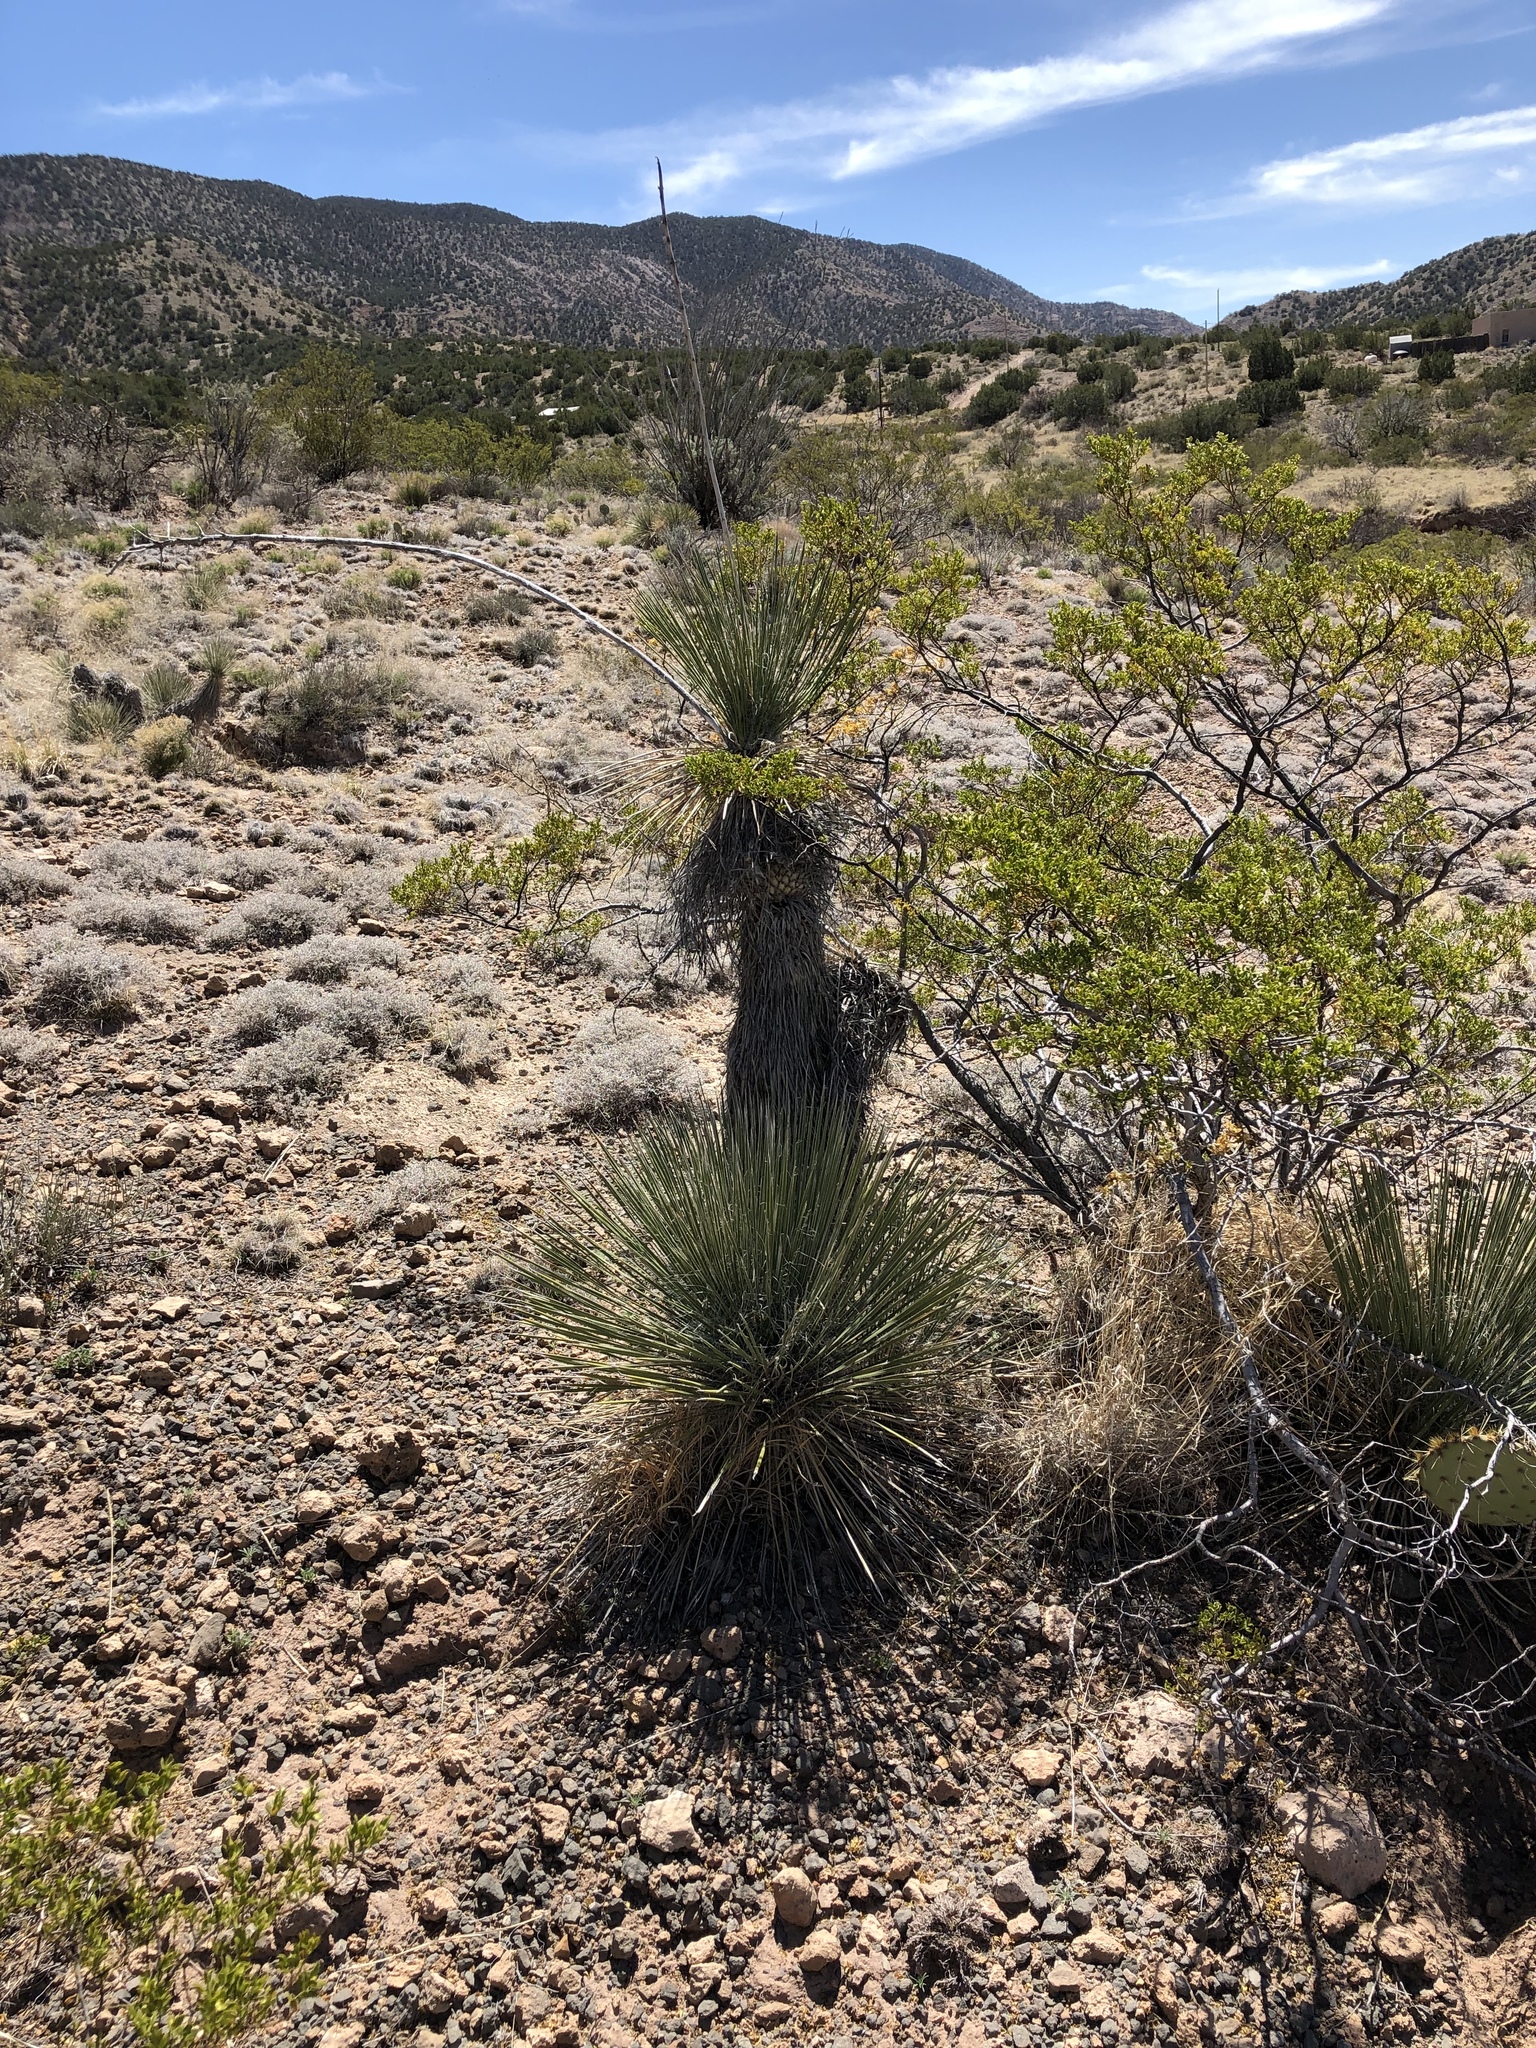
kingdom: Plantae
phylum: Tracheophyta
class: Liliopsida
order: Asparagales
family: Asparagaceae
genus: Yucca
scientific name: Yucca elata
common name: Palmella
